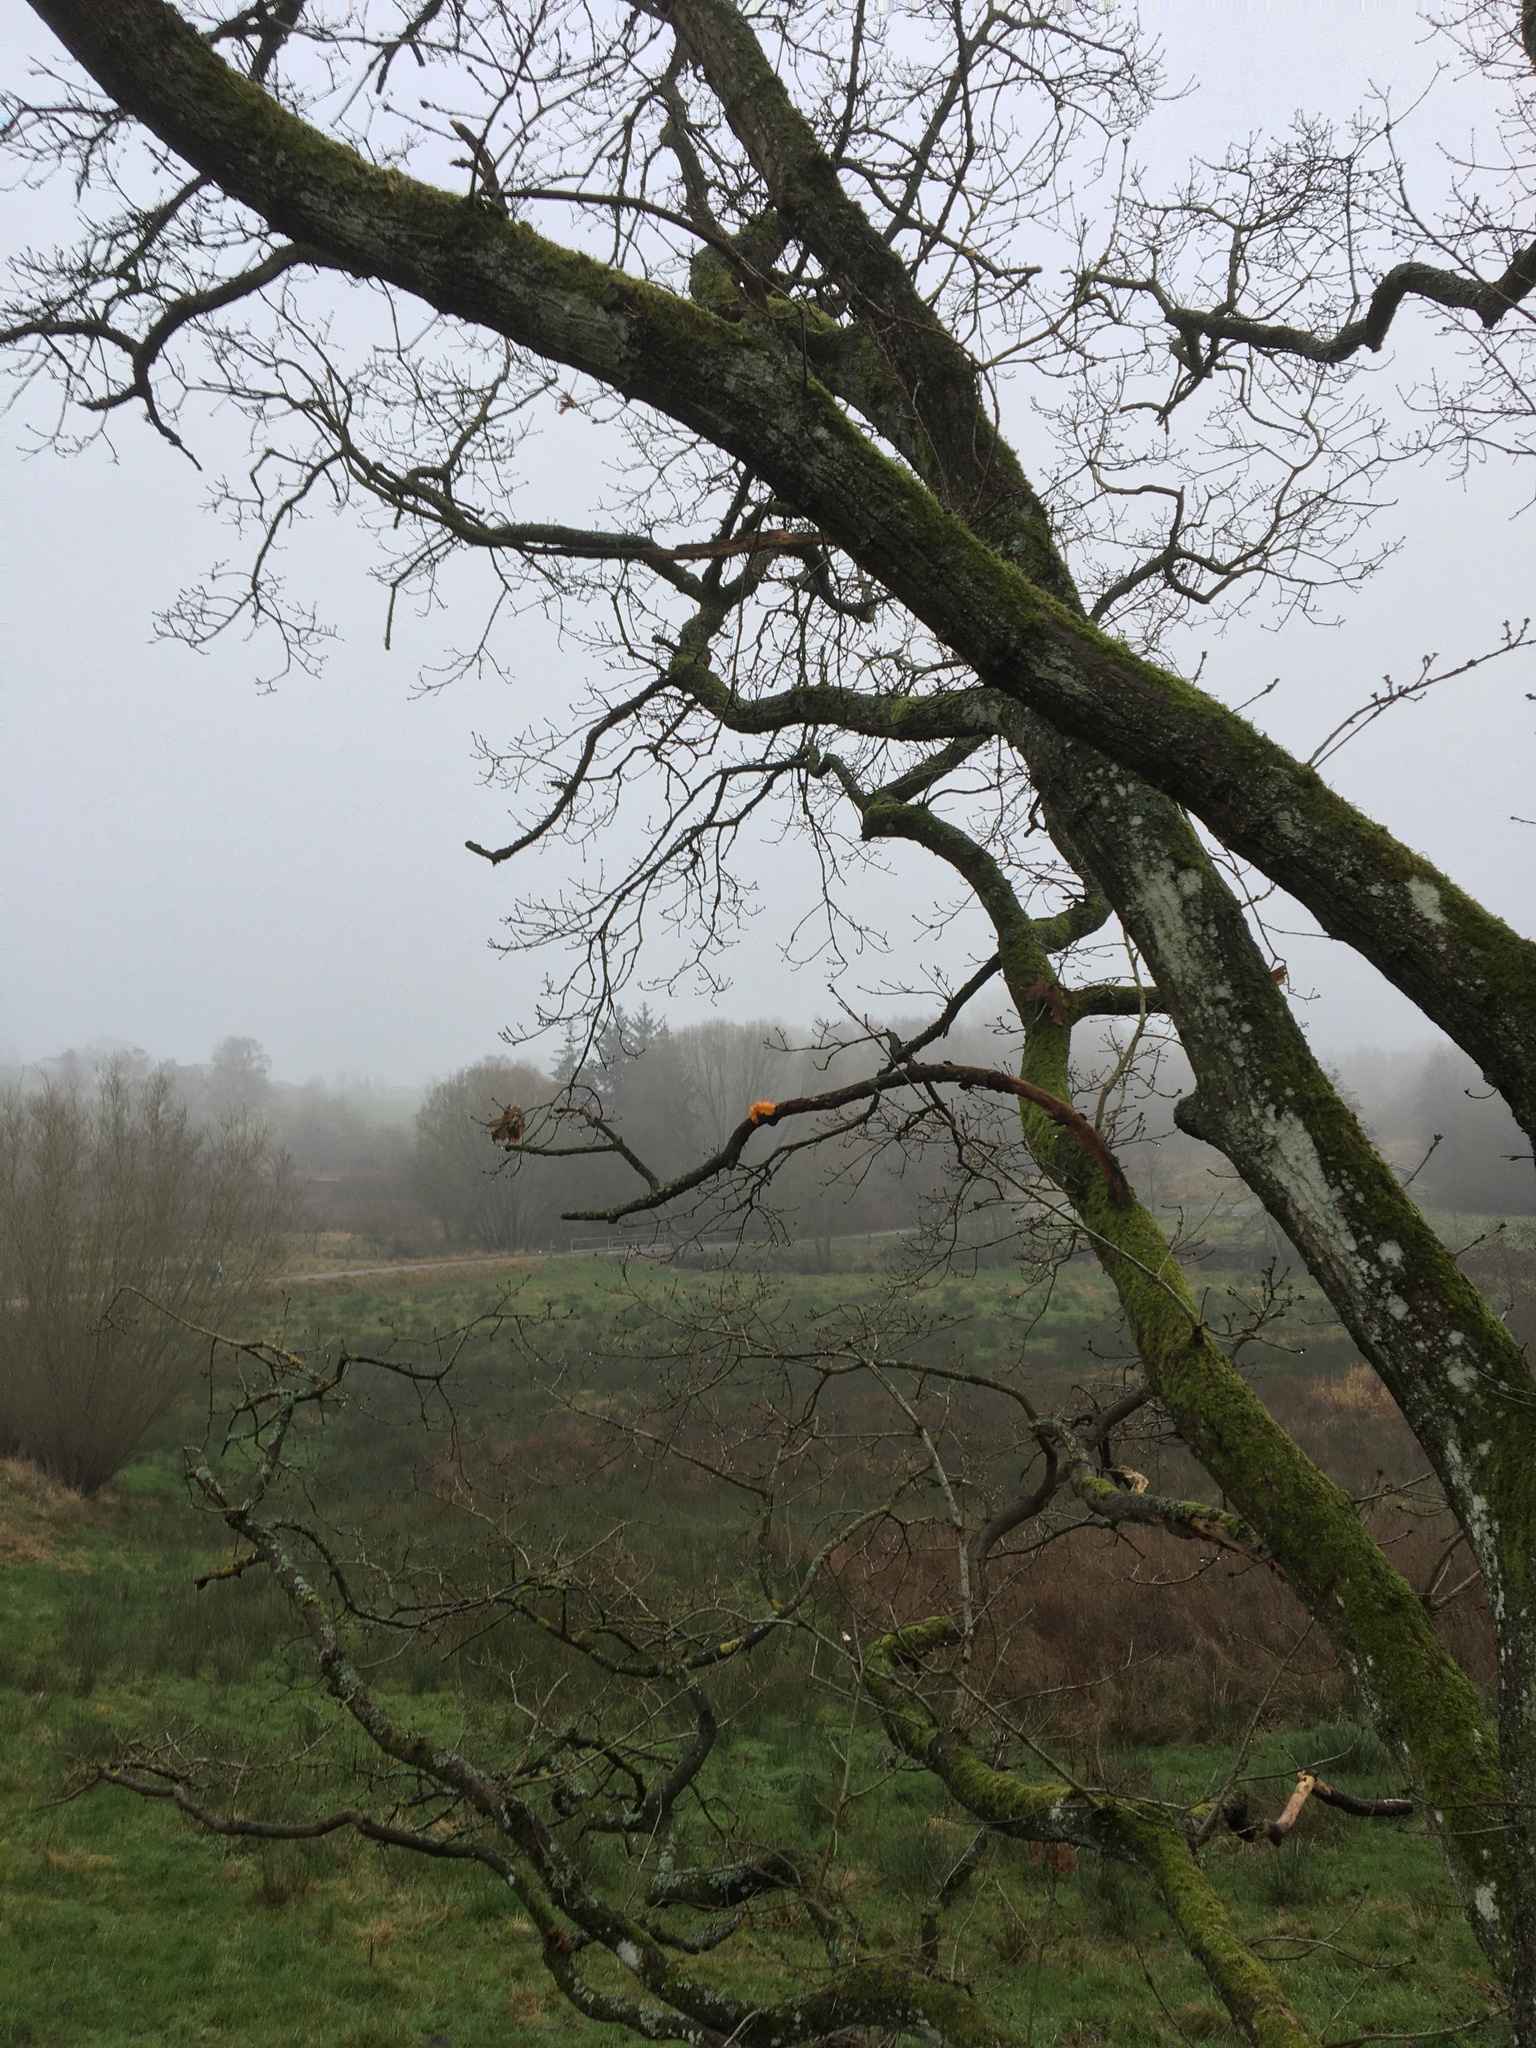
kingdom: Fungi
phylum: Basidiomycota
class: Tremellomycetes
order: Tremellales
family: Tremellaceae
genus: Tremella
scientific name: Tremella mesenterica
